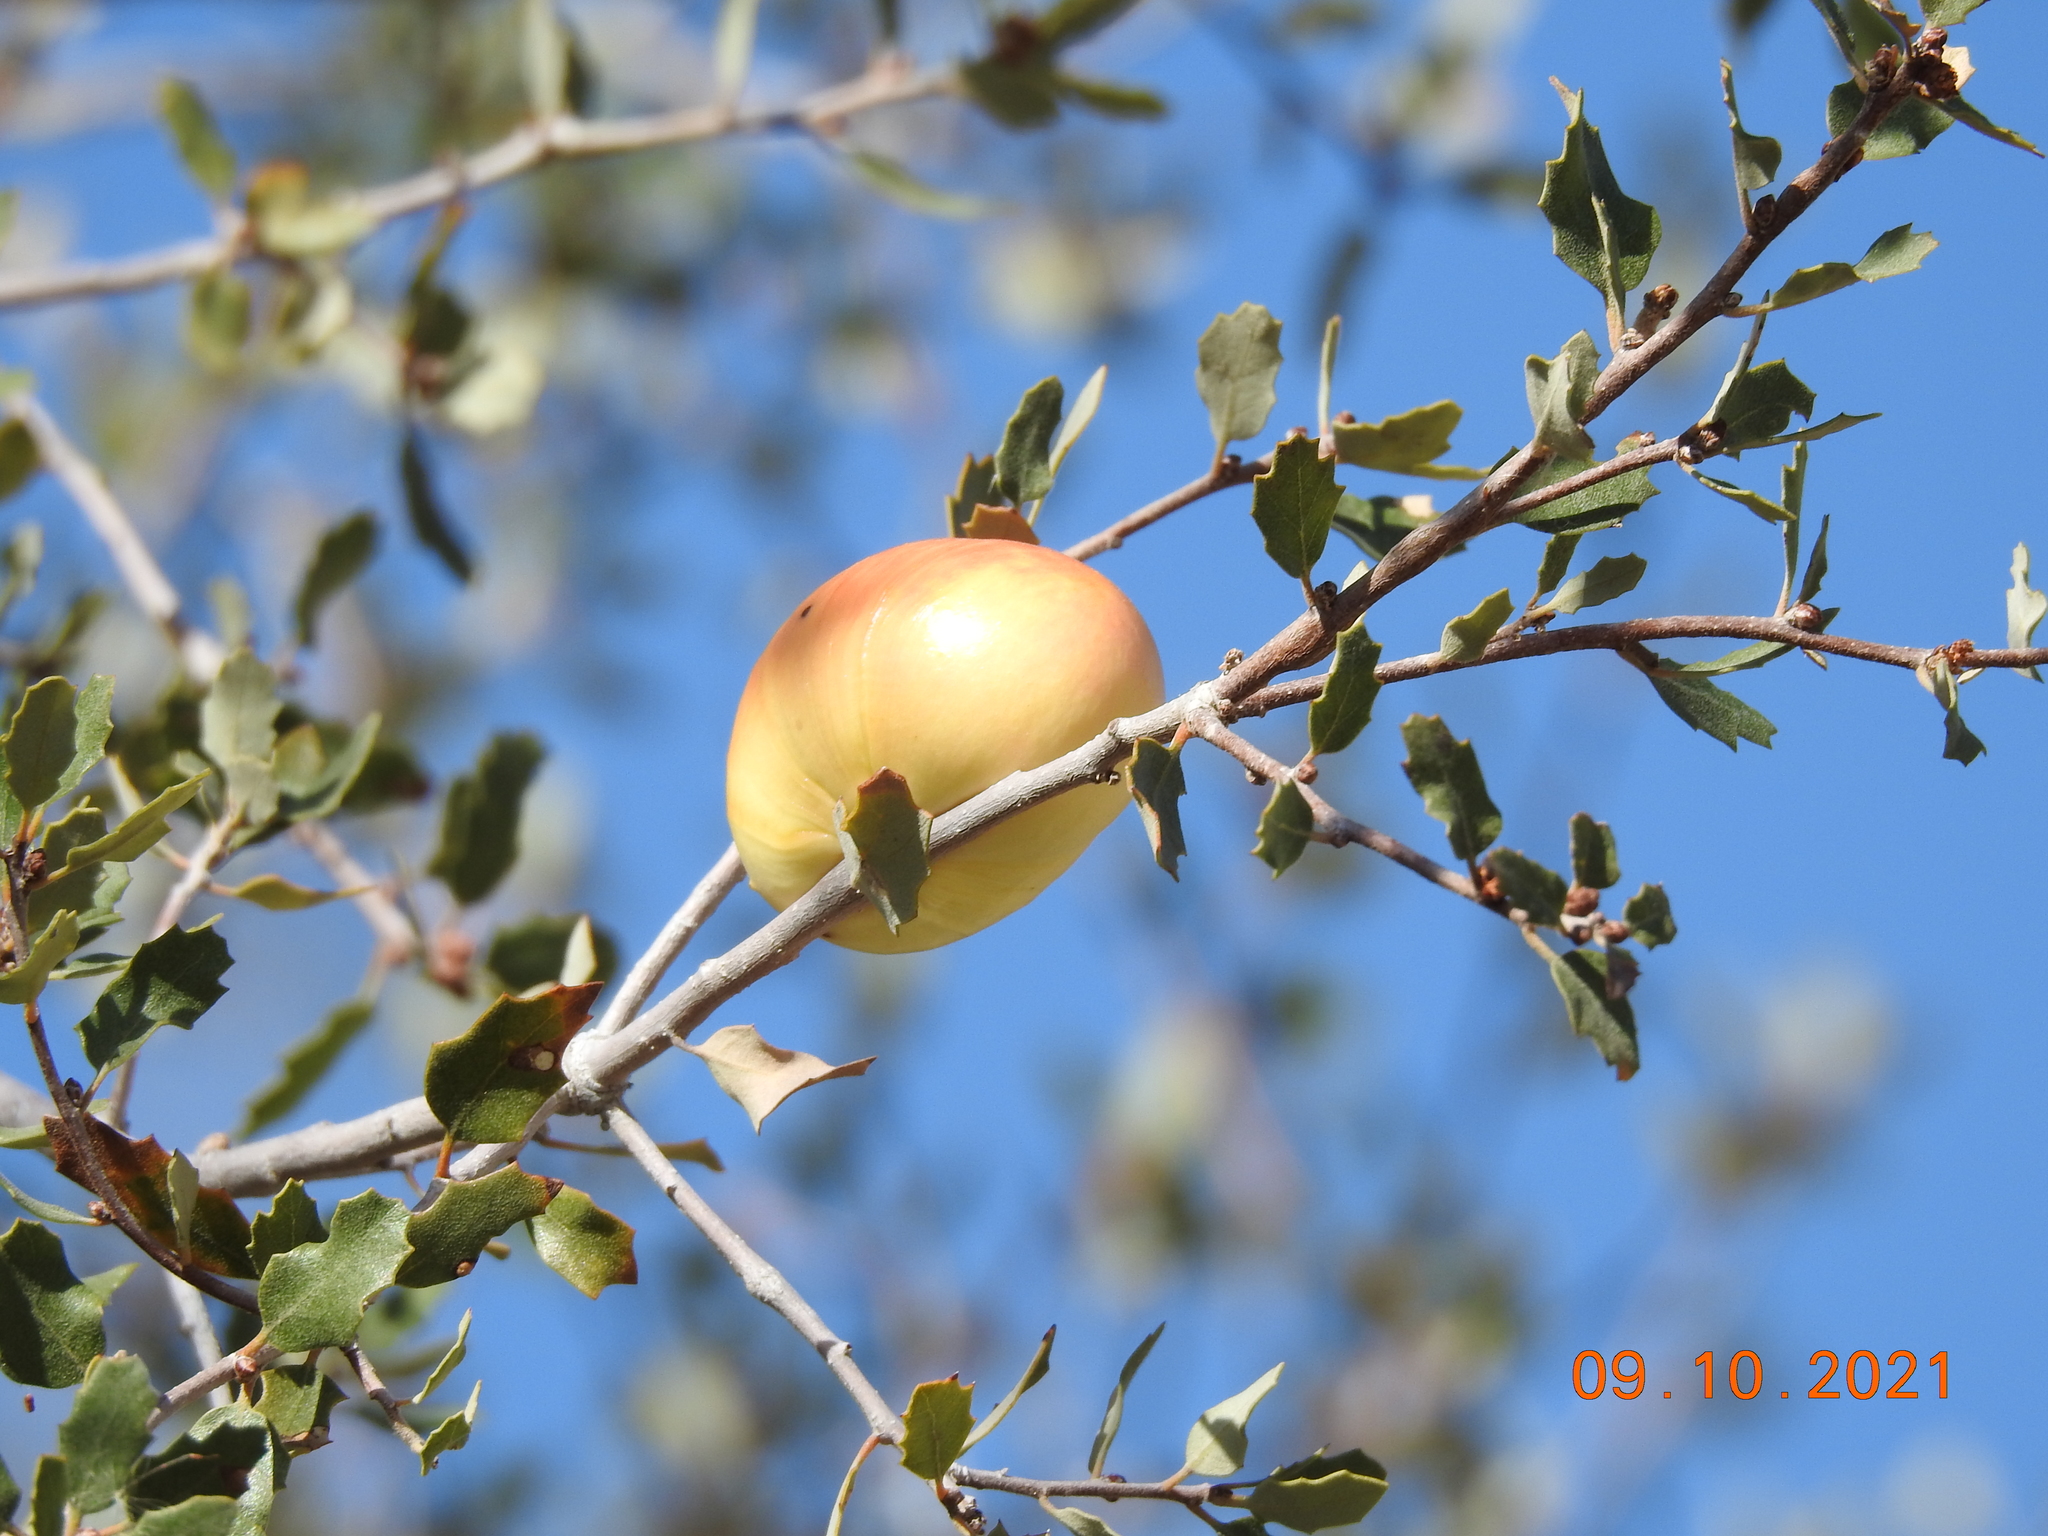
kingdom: Animalia
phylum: Arthropoda
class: Insecta
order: Hymenoptera
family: Cynipidae
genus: Andricus
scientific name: Andricus quercuscalifornicus
